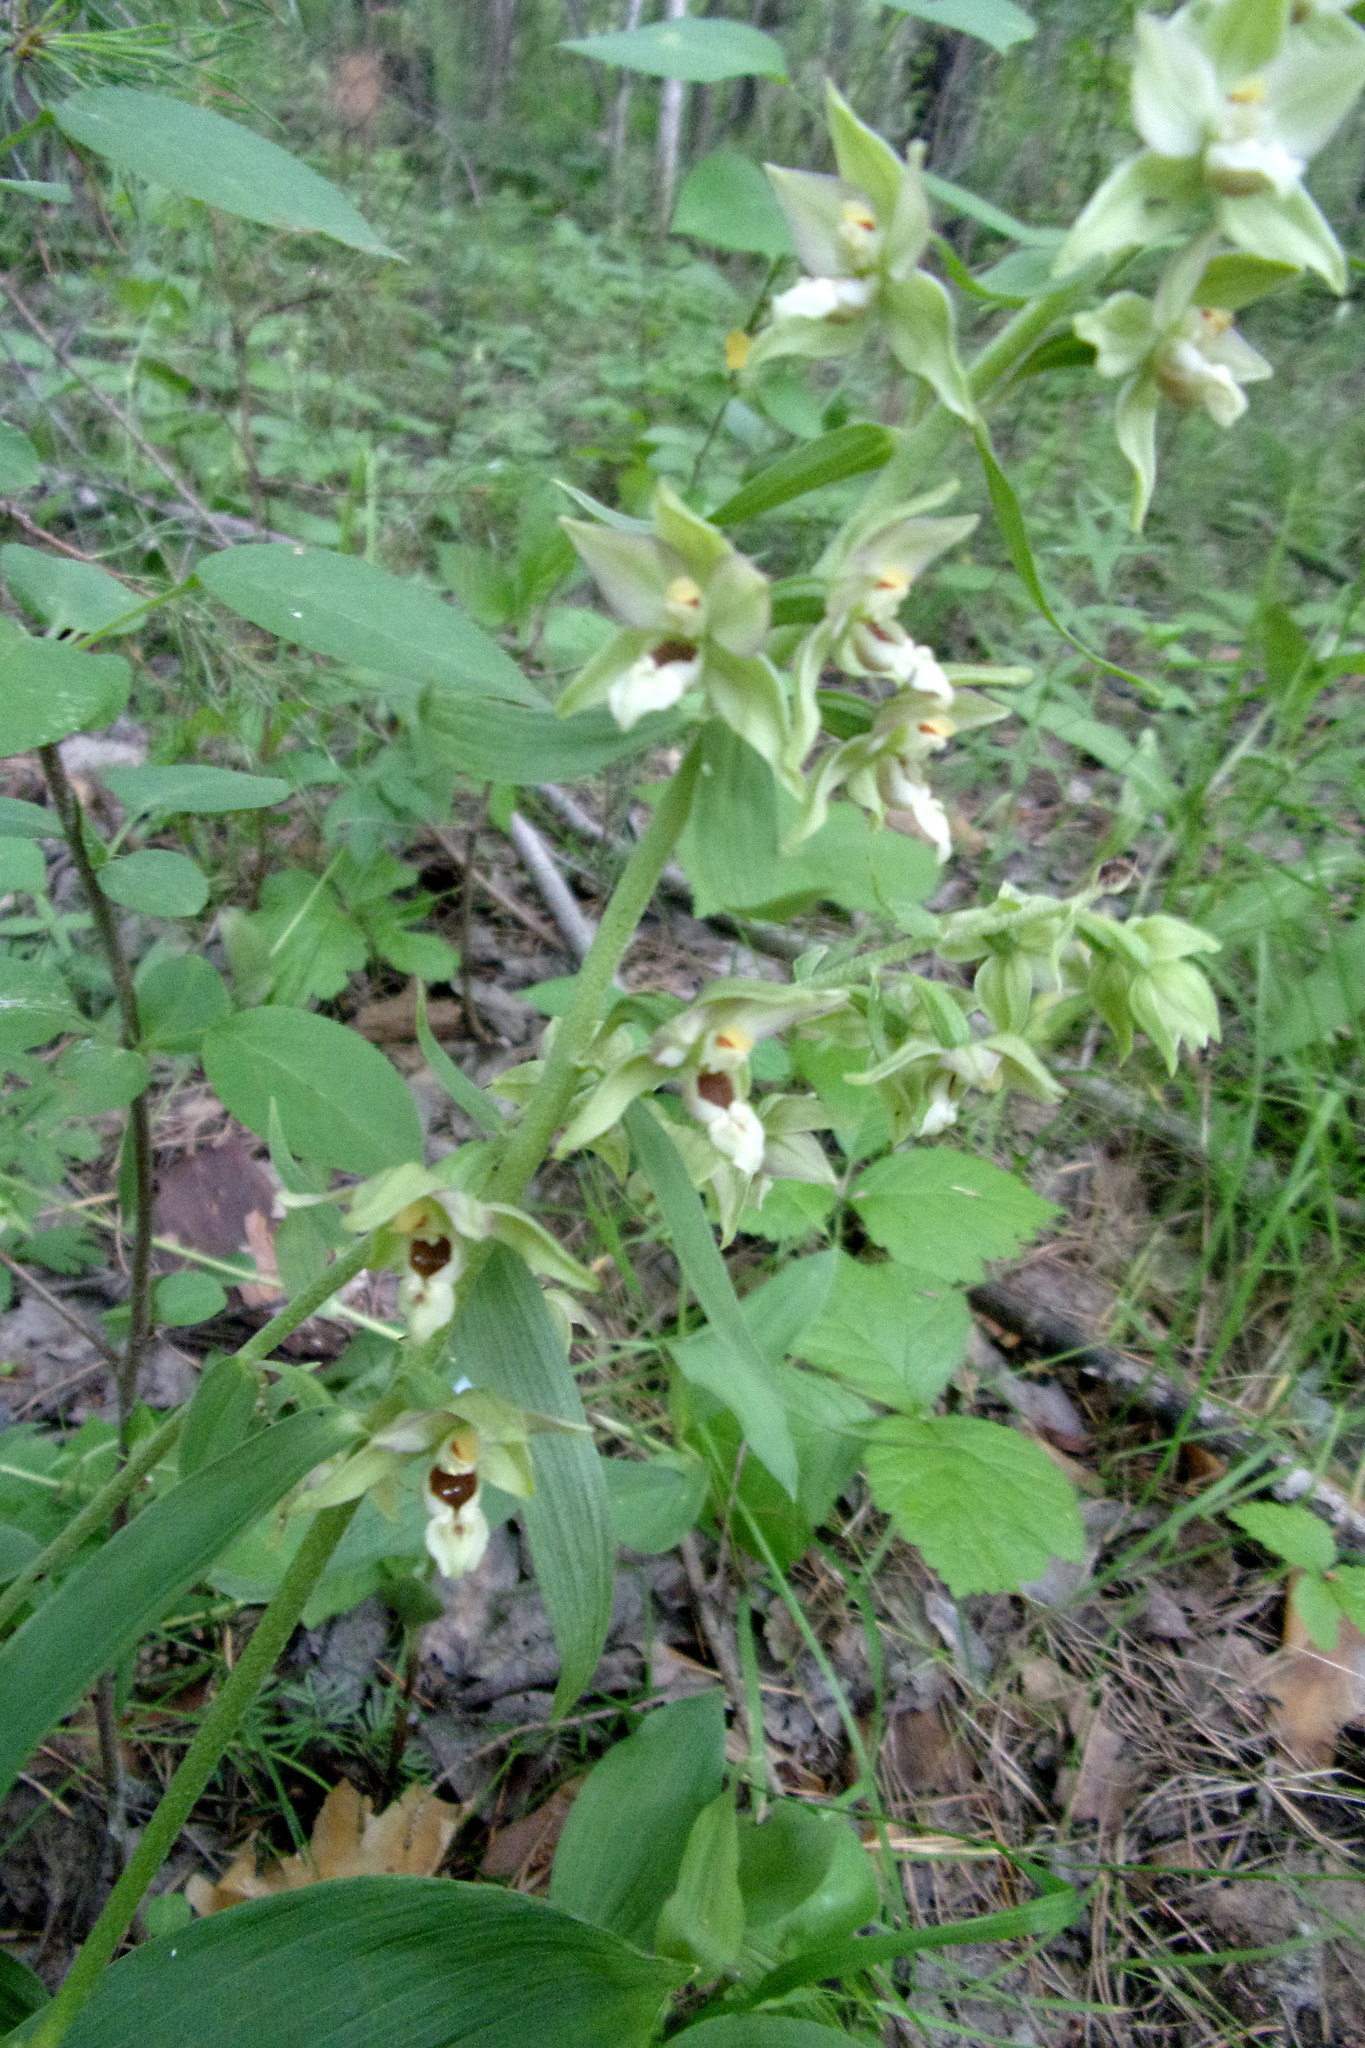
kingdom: Plantae
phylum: Tracheophyta
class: Liliopsida
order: Asparagales
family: Orchidaceae
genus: Epipactis
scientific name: Epipactis helleborine
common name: Broad-leaved helleborine
